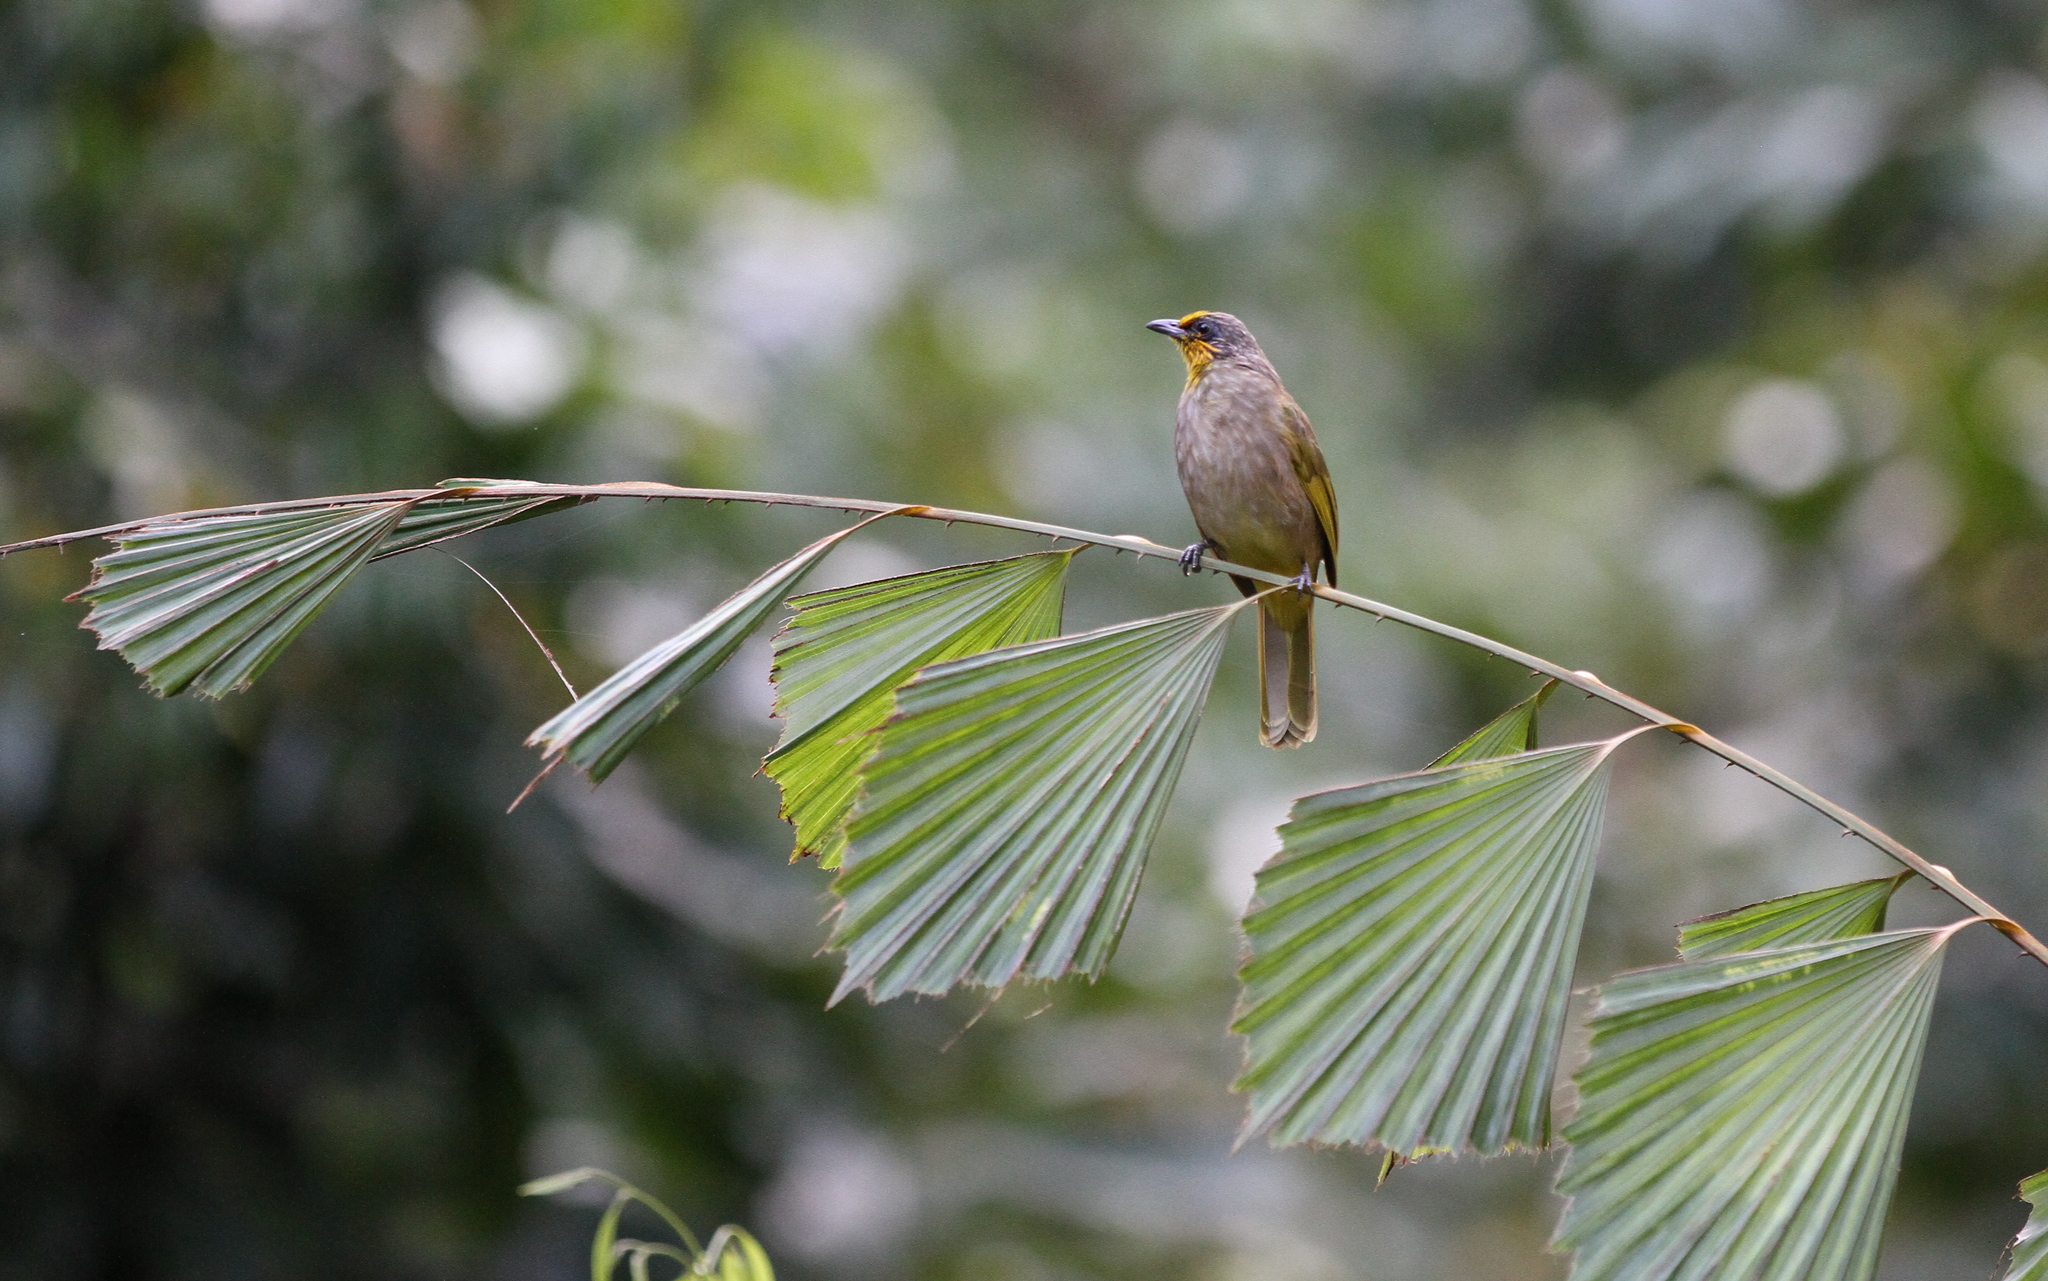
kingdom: Animalia
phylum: Chordata
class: Aves
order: Passeriformes
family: Pycnonotidae
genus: Pycnonotus
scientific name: Pycnonotus finlaysoni
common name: Stripe-throated bulbul
